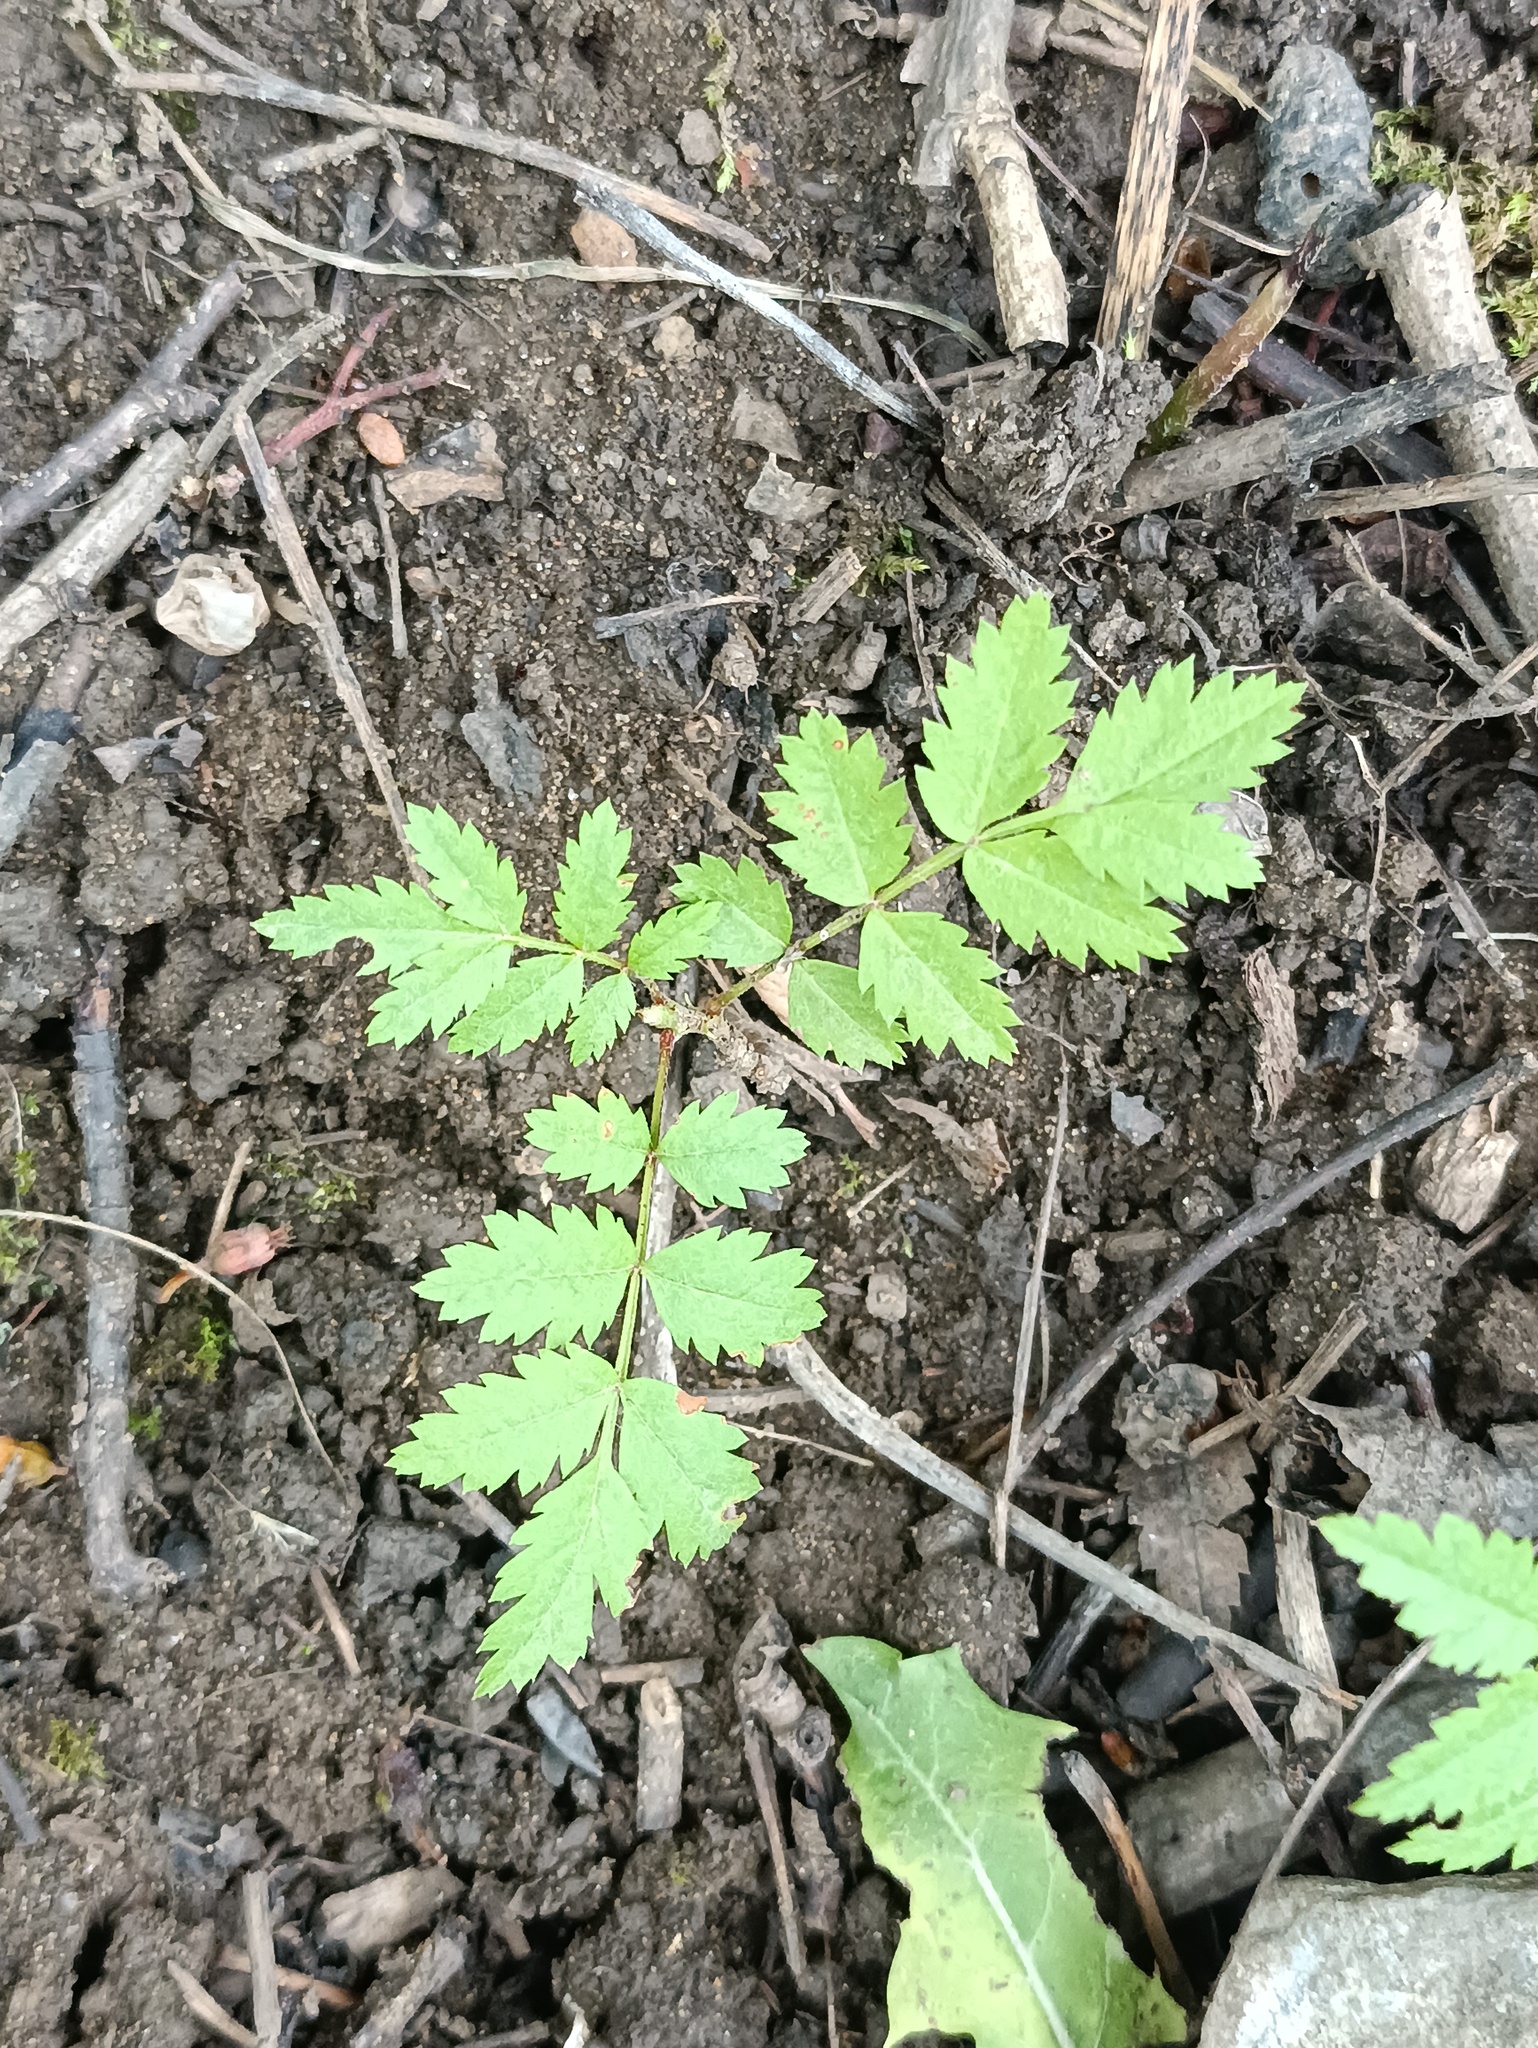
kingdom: Plantae
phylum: Tracheophyta
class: Magnoliopsida
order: Rosales
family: Rosaceae
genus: Sorbus
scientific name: Sorbus aucuparia
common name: Rowan
